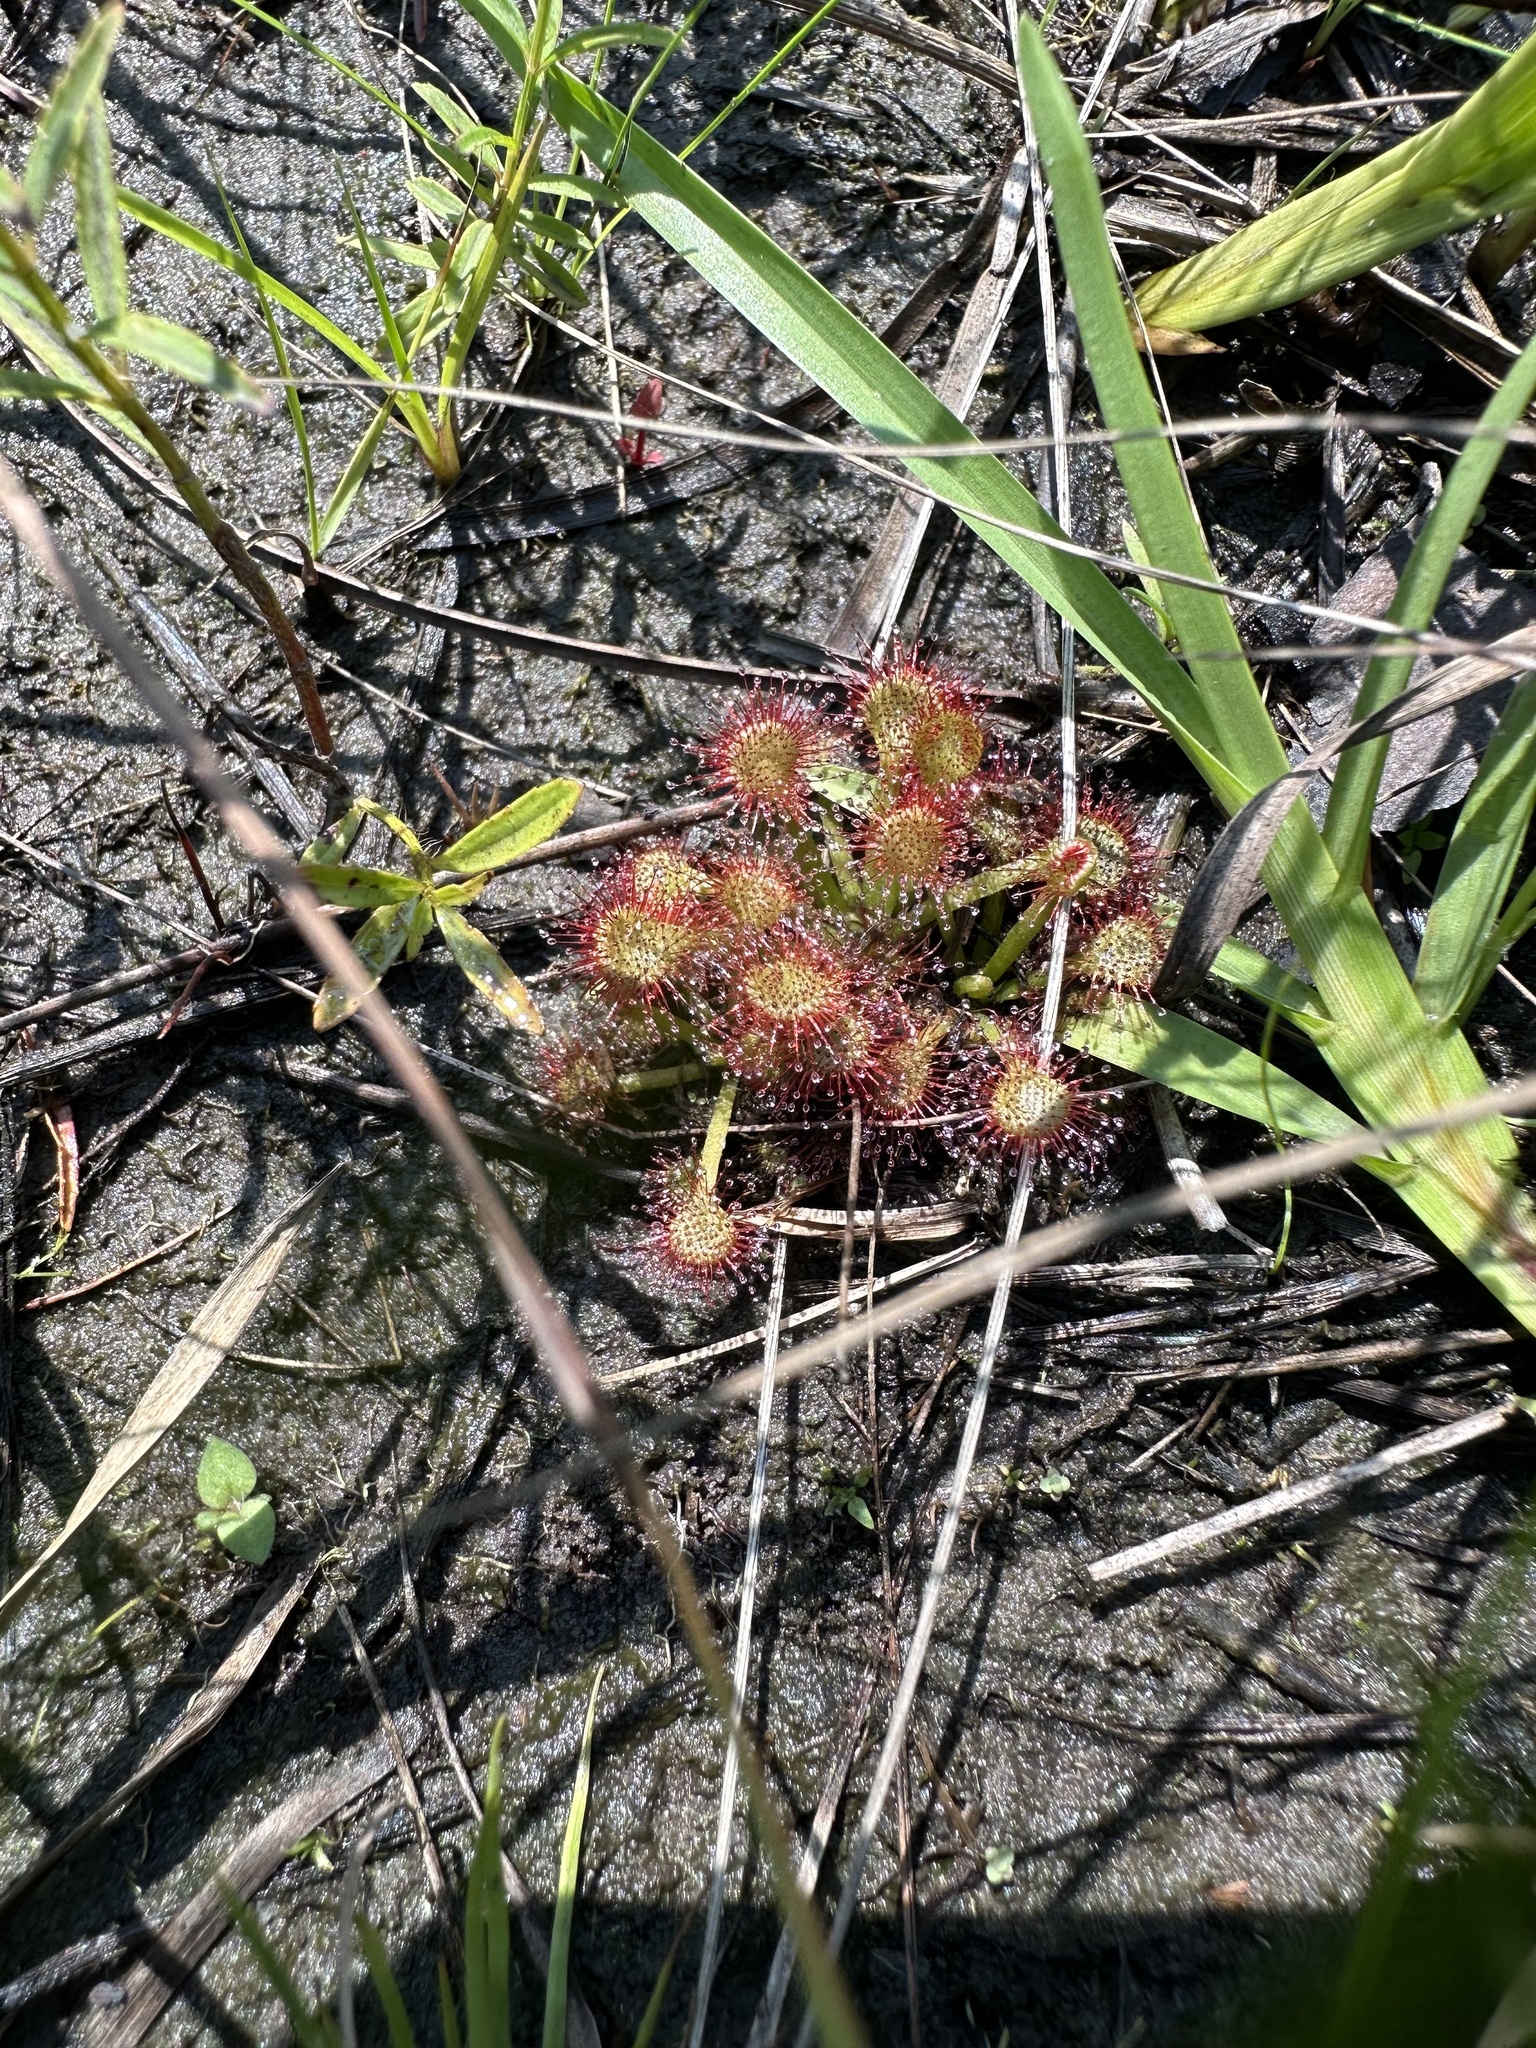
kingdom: Plantae
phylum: Tracheophyta
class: Magnoliopsida
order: Caryophyllales
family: Droseraceae
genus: Drosera
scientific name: Drosera capillaris
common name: Pink sundew
